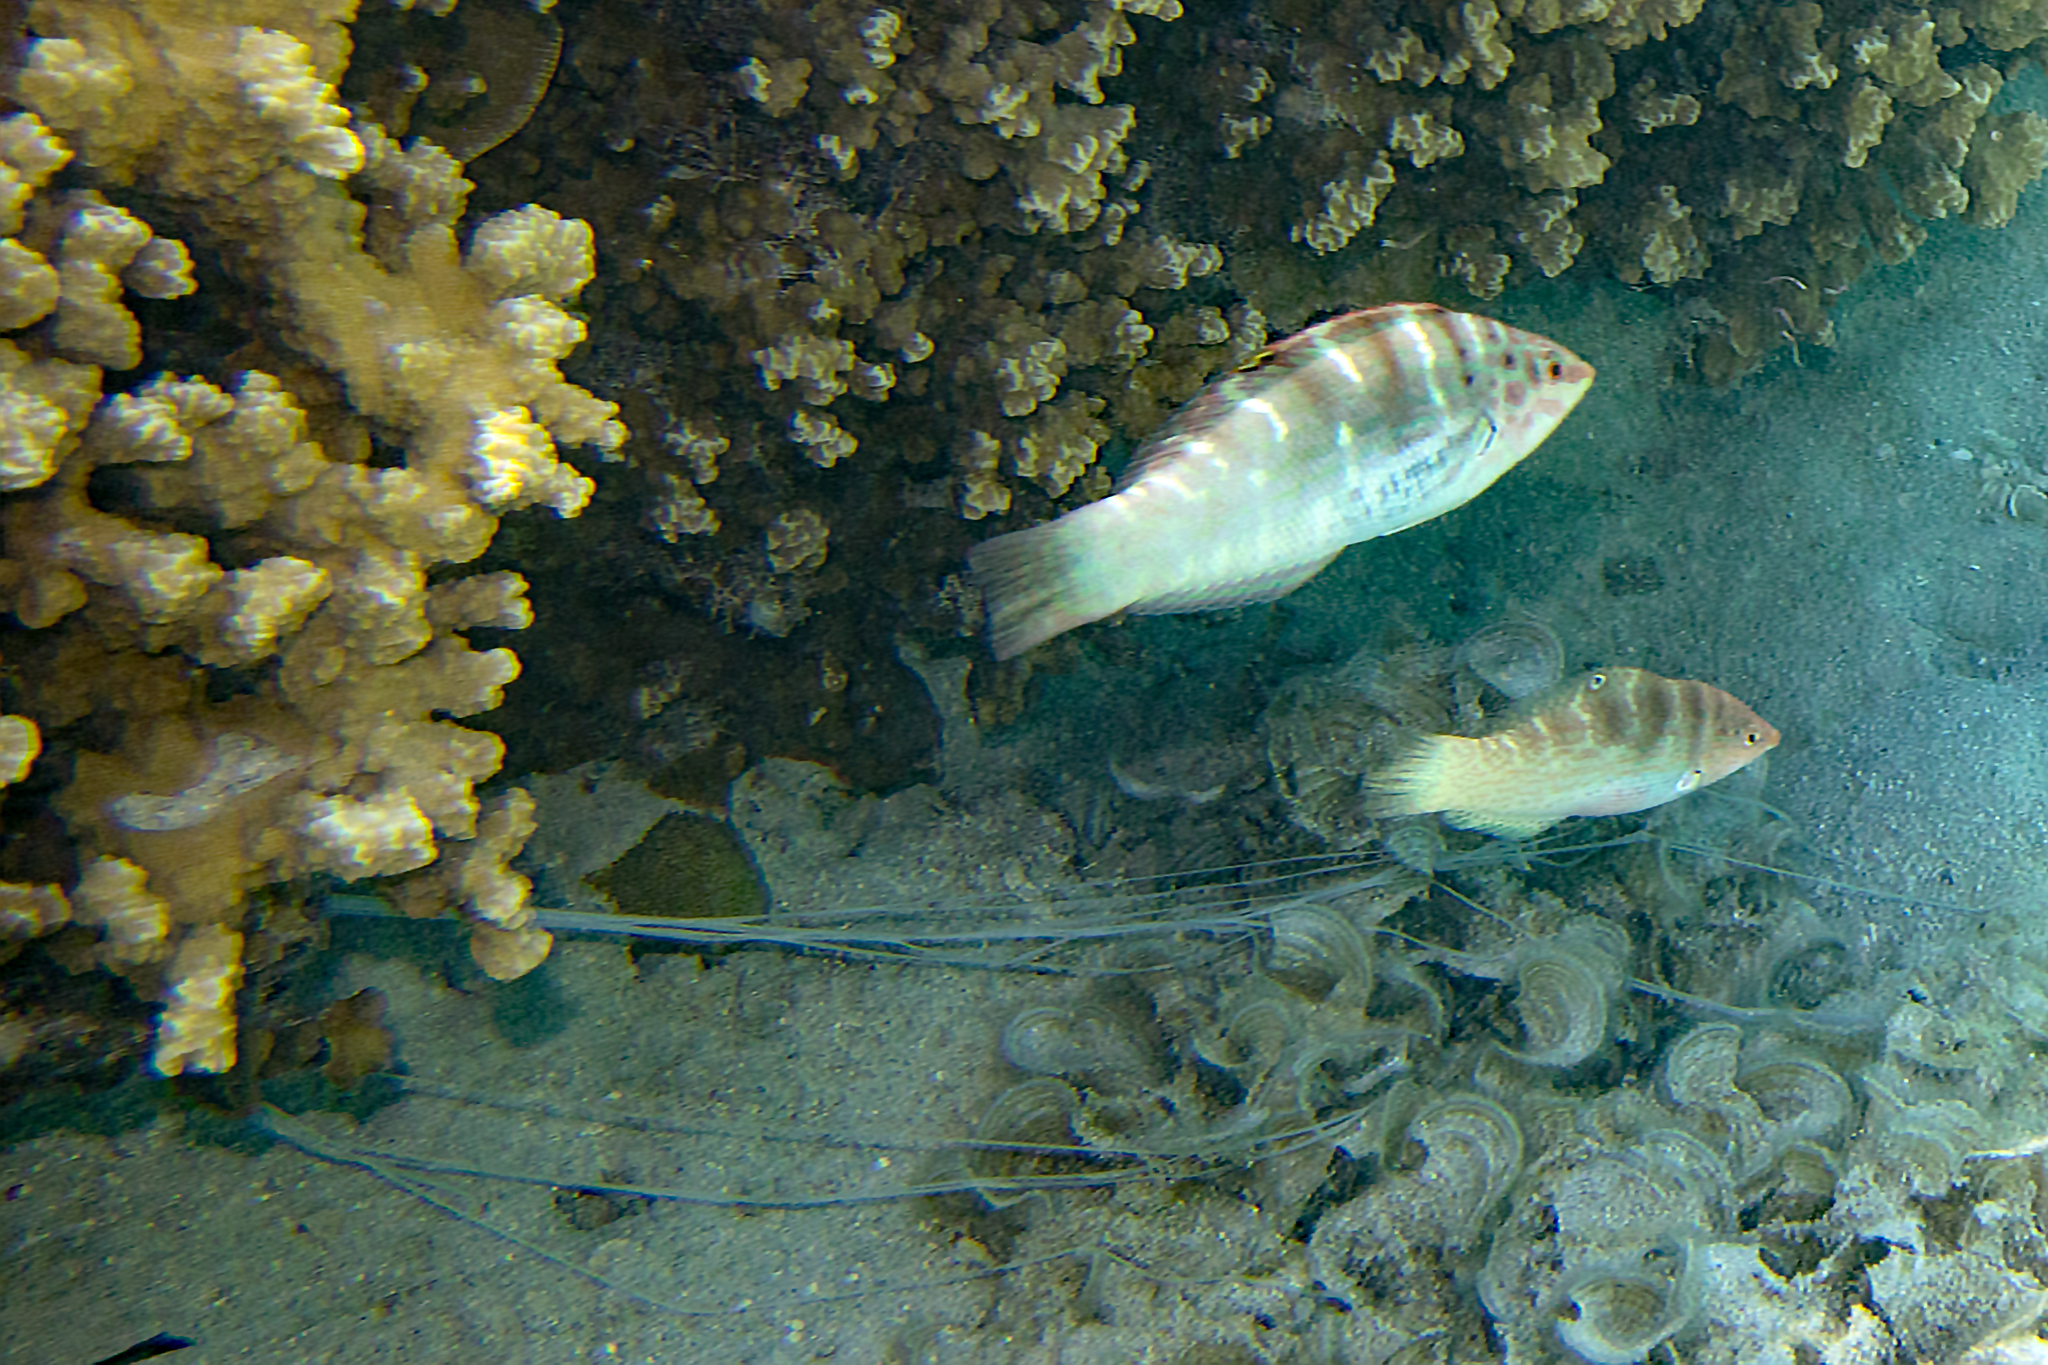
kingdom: Animalia
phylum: Annelida
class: Polychaeta
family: Terebellidae
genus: Reteterebella
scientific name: Reteterebella lirrf
